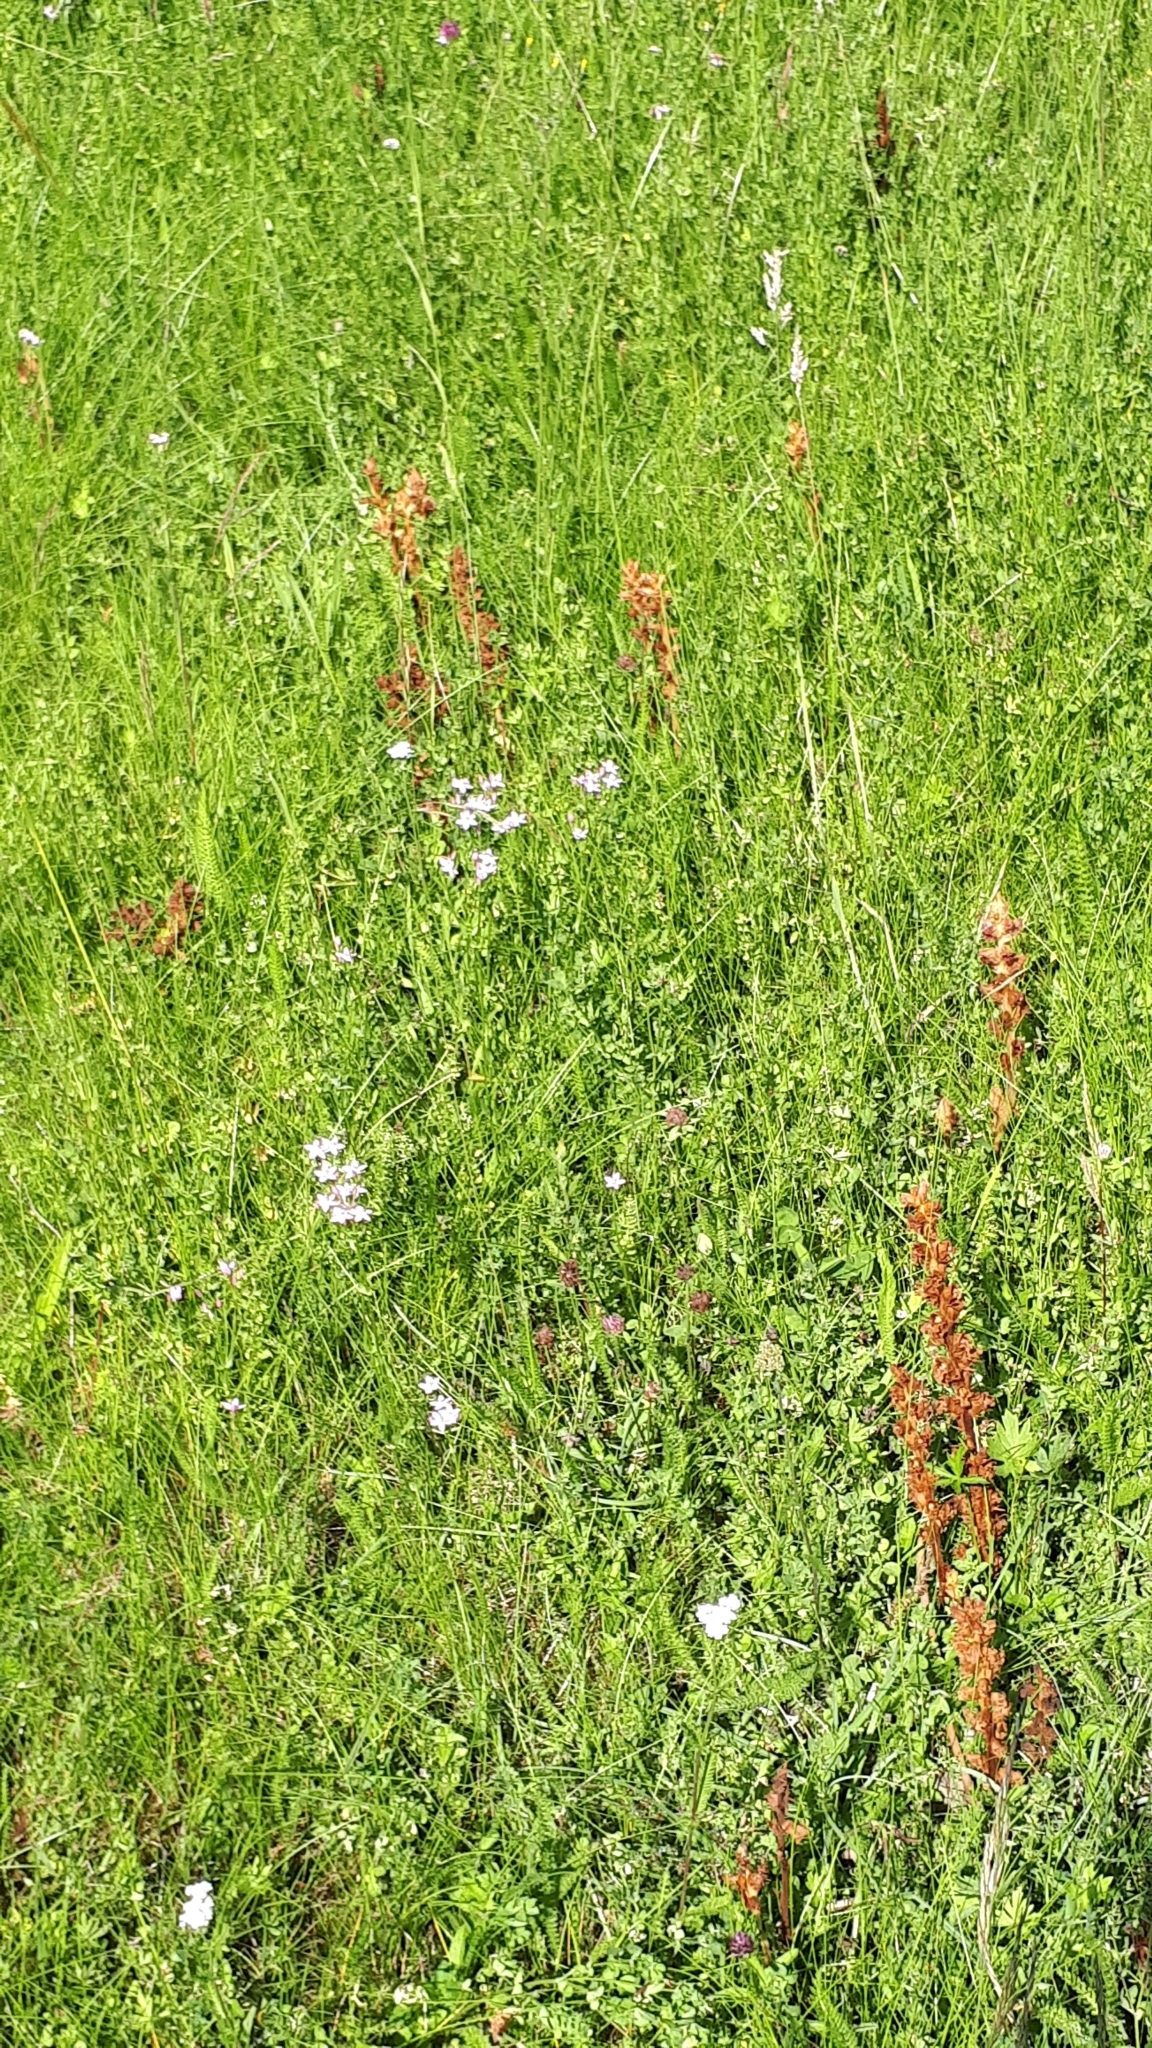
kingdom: Plantae
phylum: Tracheophyta
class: Magnoliopsida
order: Lamiales
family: Orobanchaceae
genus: Orobanche
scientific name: Orobanche gracilis
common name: Slender broomrape
